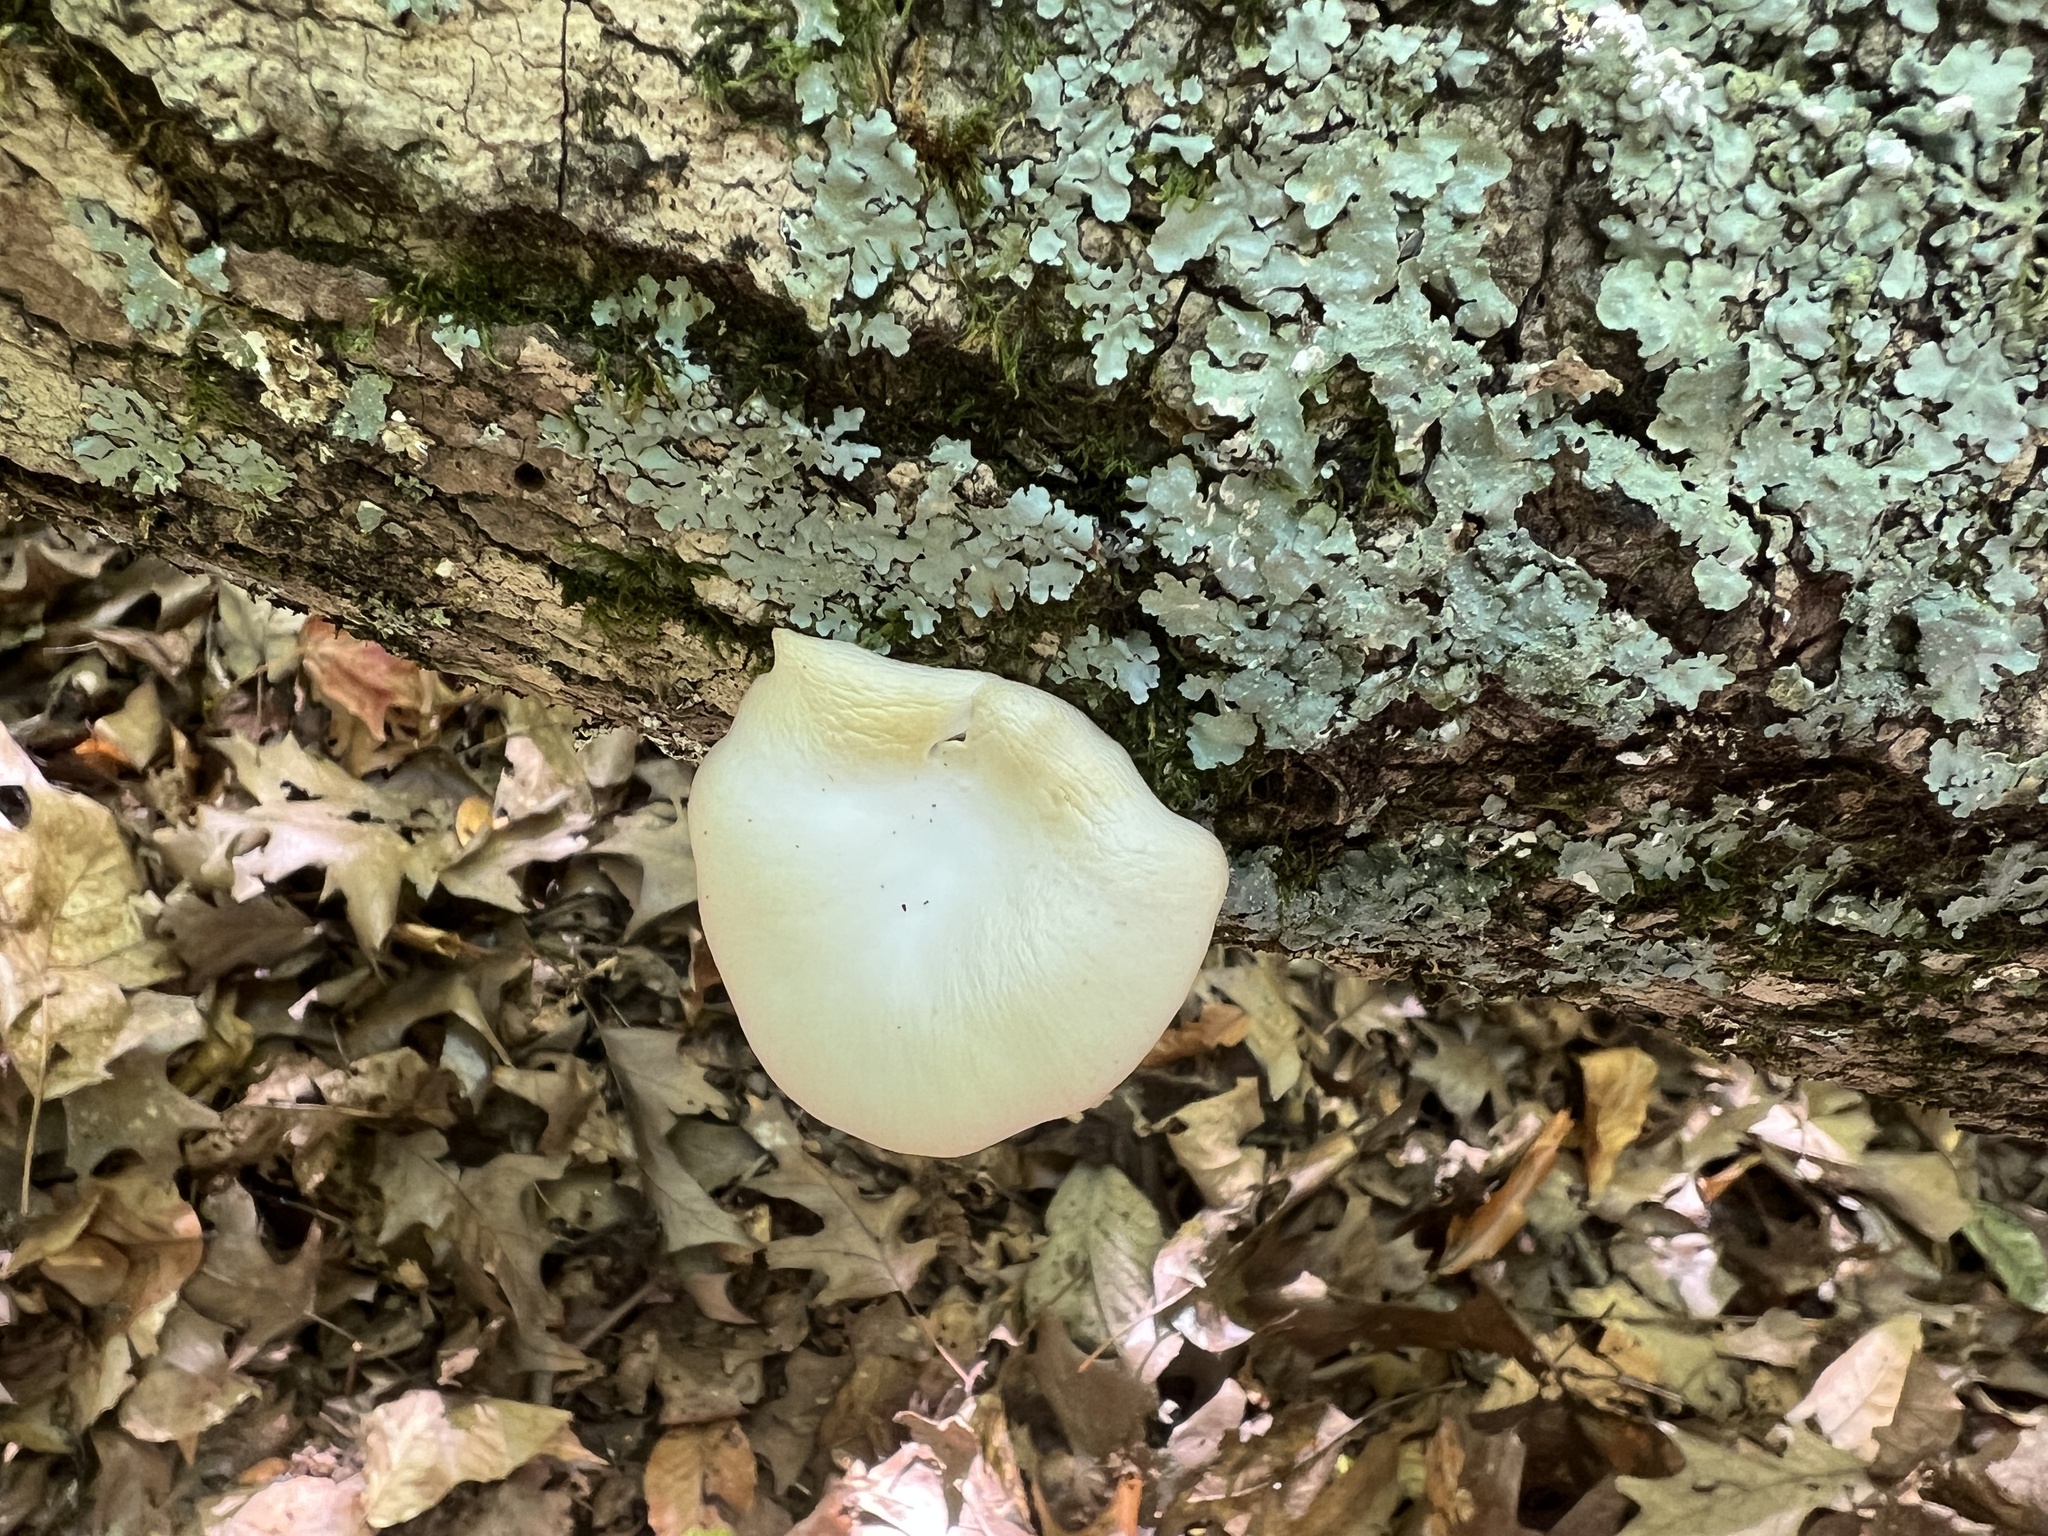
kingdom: Fungi
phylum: Basidiomycota
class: Agaricomycetes
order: Agaricales
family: Pleurotaceae
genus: Pleurotus
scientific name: Pleurotus ostreatus
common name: Oyster mushroom
